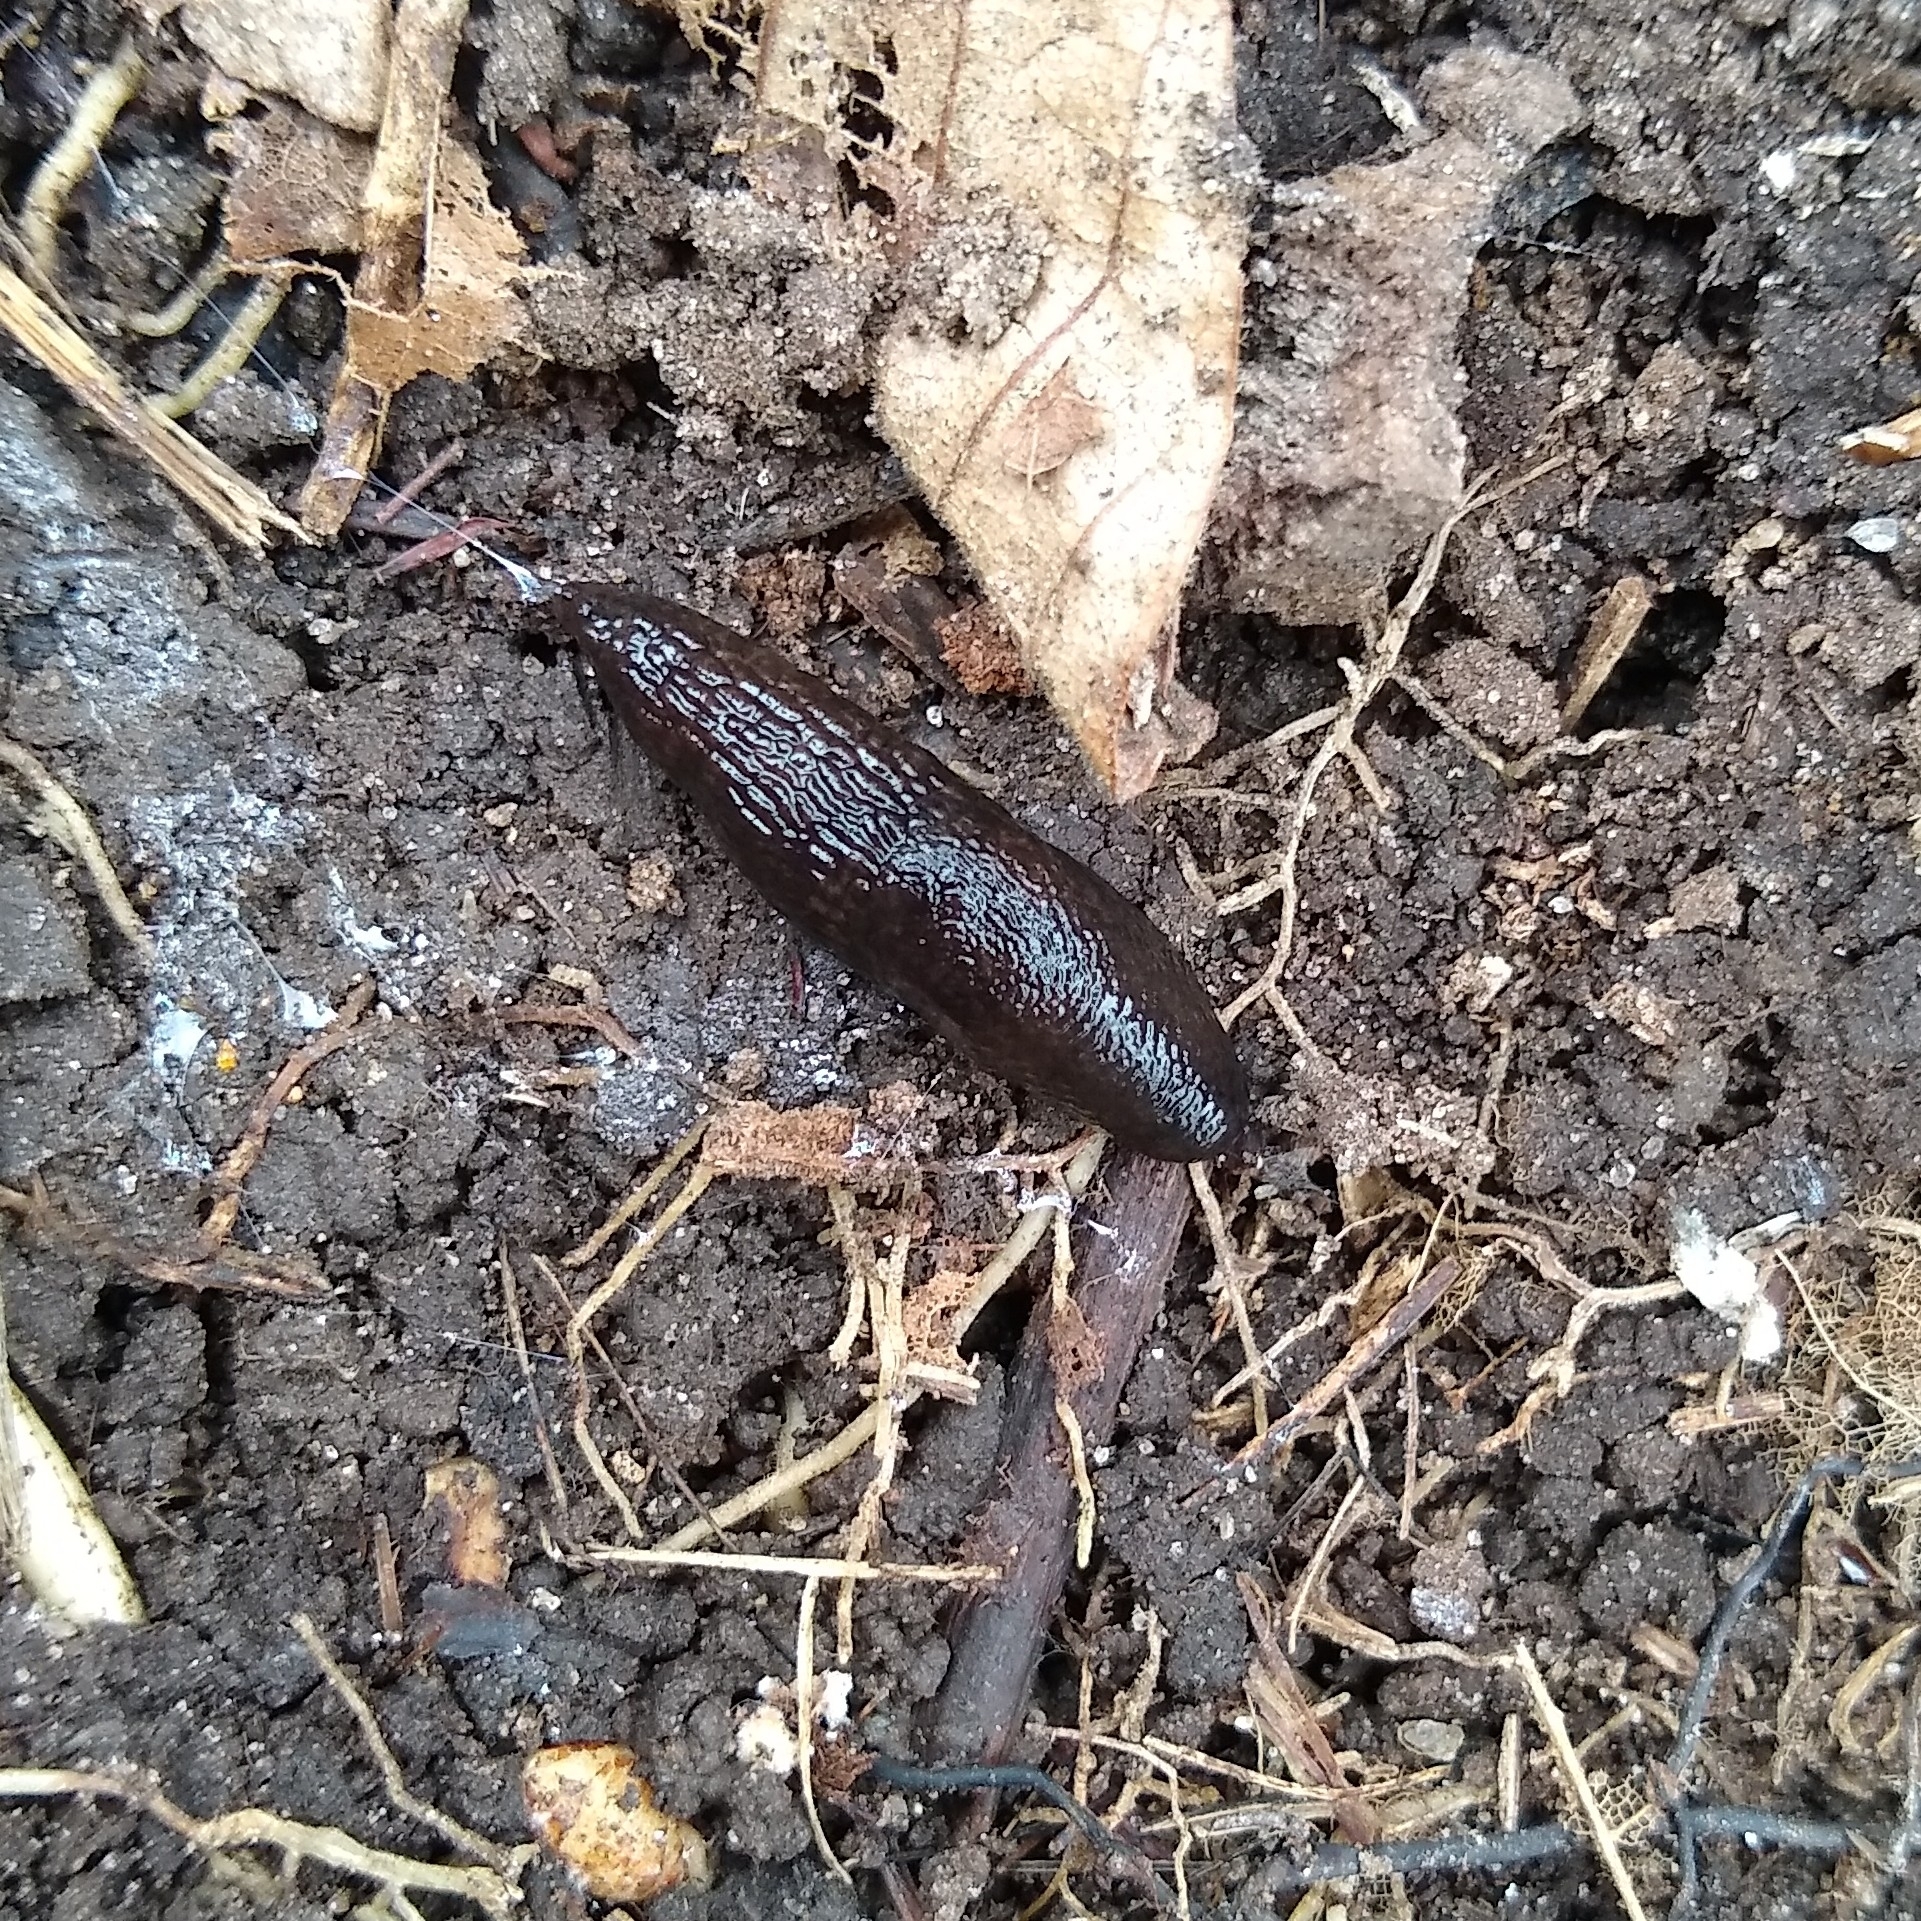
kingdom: Animalia
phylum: Mollusca
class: Gastropoda
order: Stylommatophora
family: Agriolimacidae
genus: Deroceras
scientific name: Deroceras laeve
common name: Marsh slug
